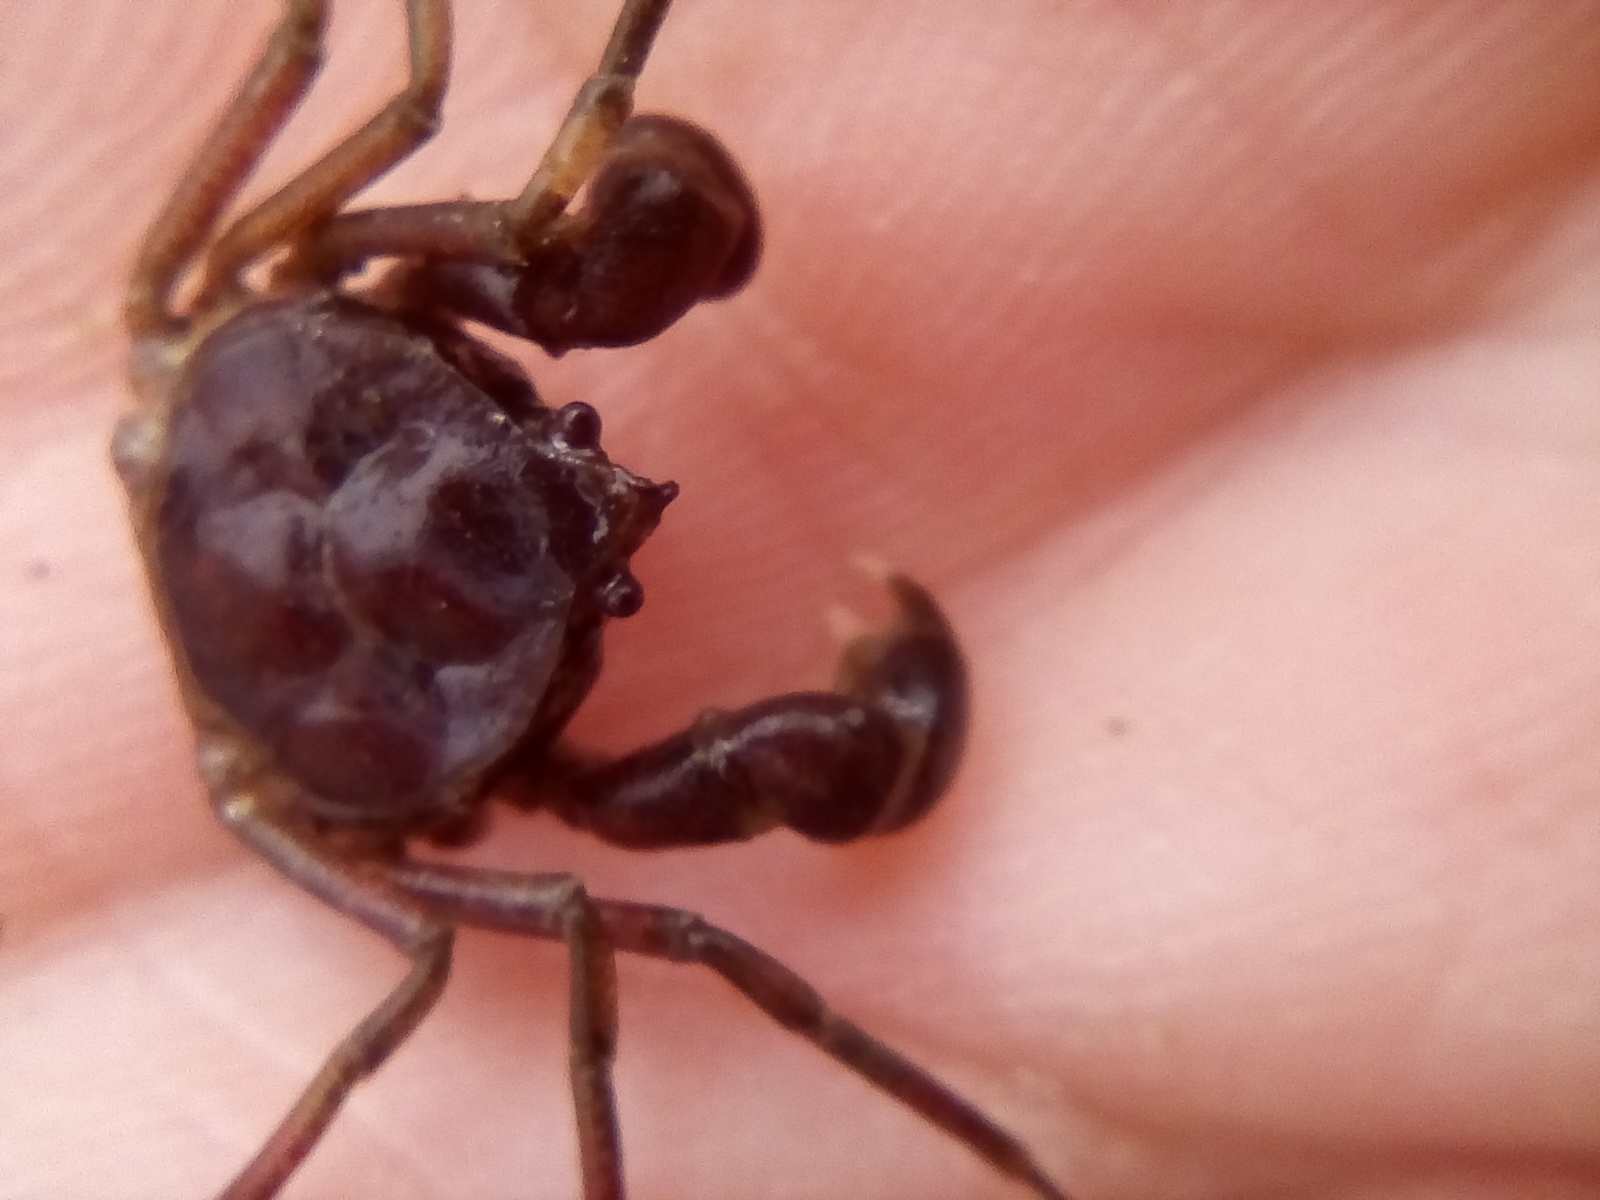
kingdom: Animalia
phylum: Arthropoda
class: Malacostraca
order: Decapoda
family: Hymenosomatidae
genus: Halicarcinus
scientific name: Halicarcinus varius
